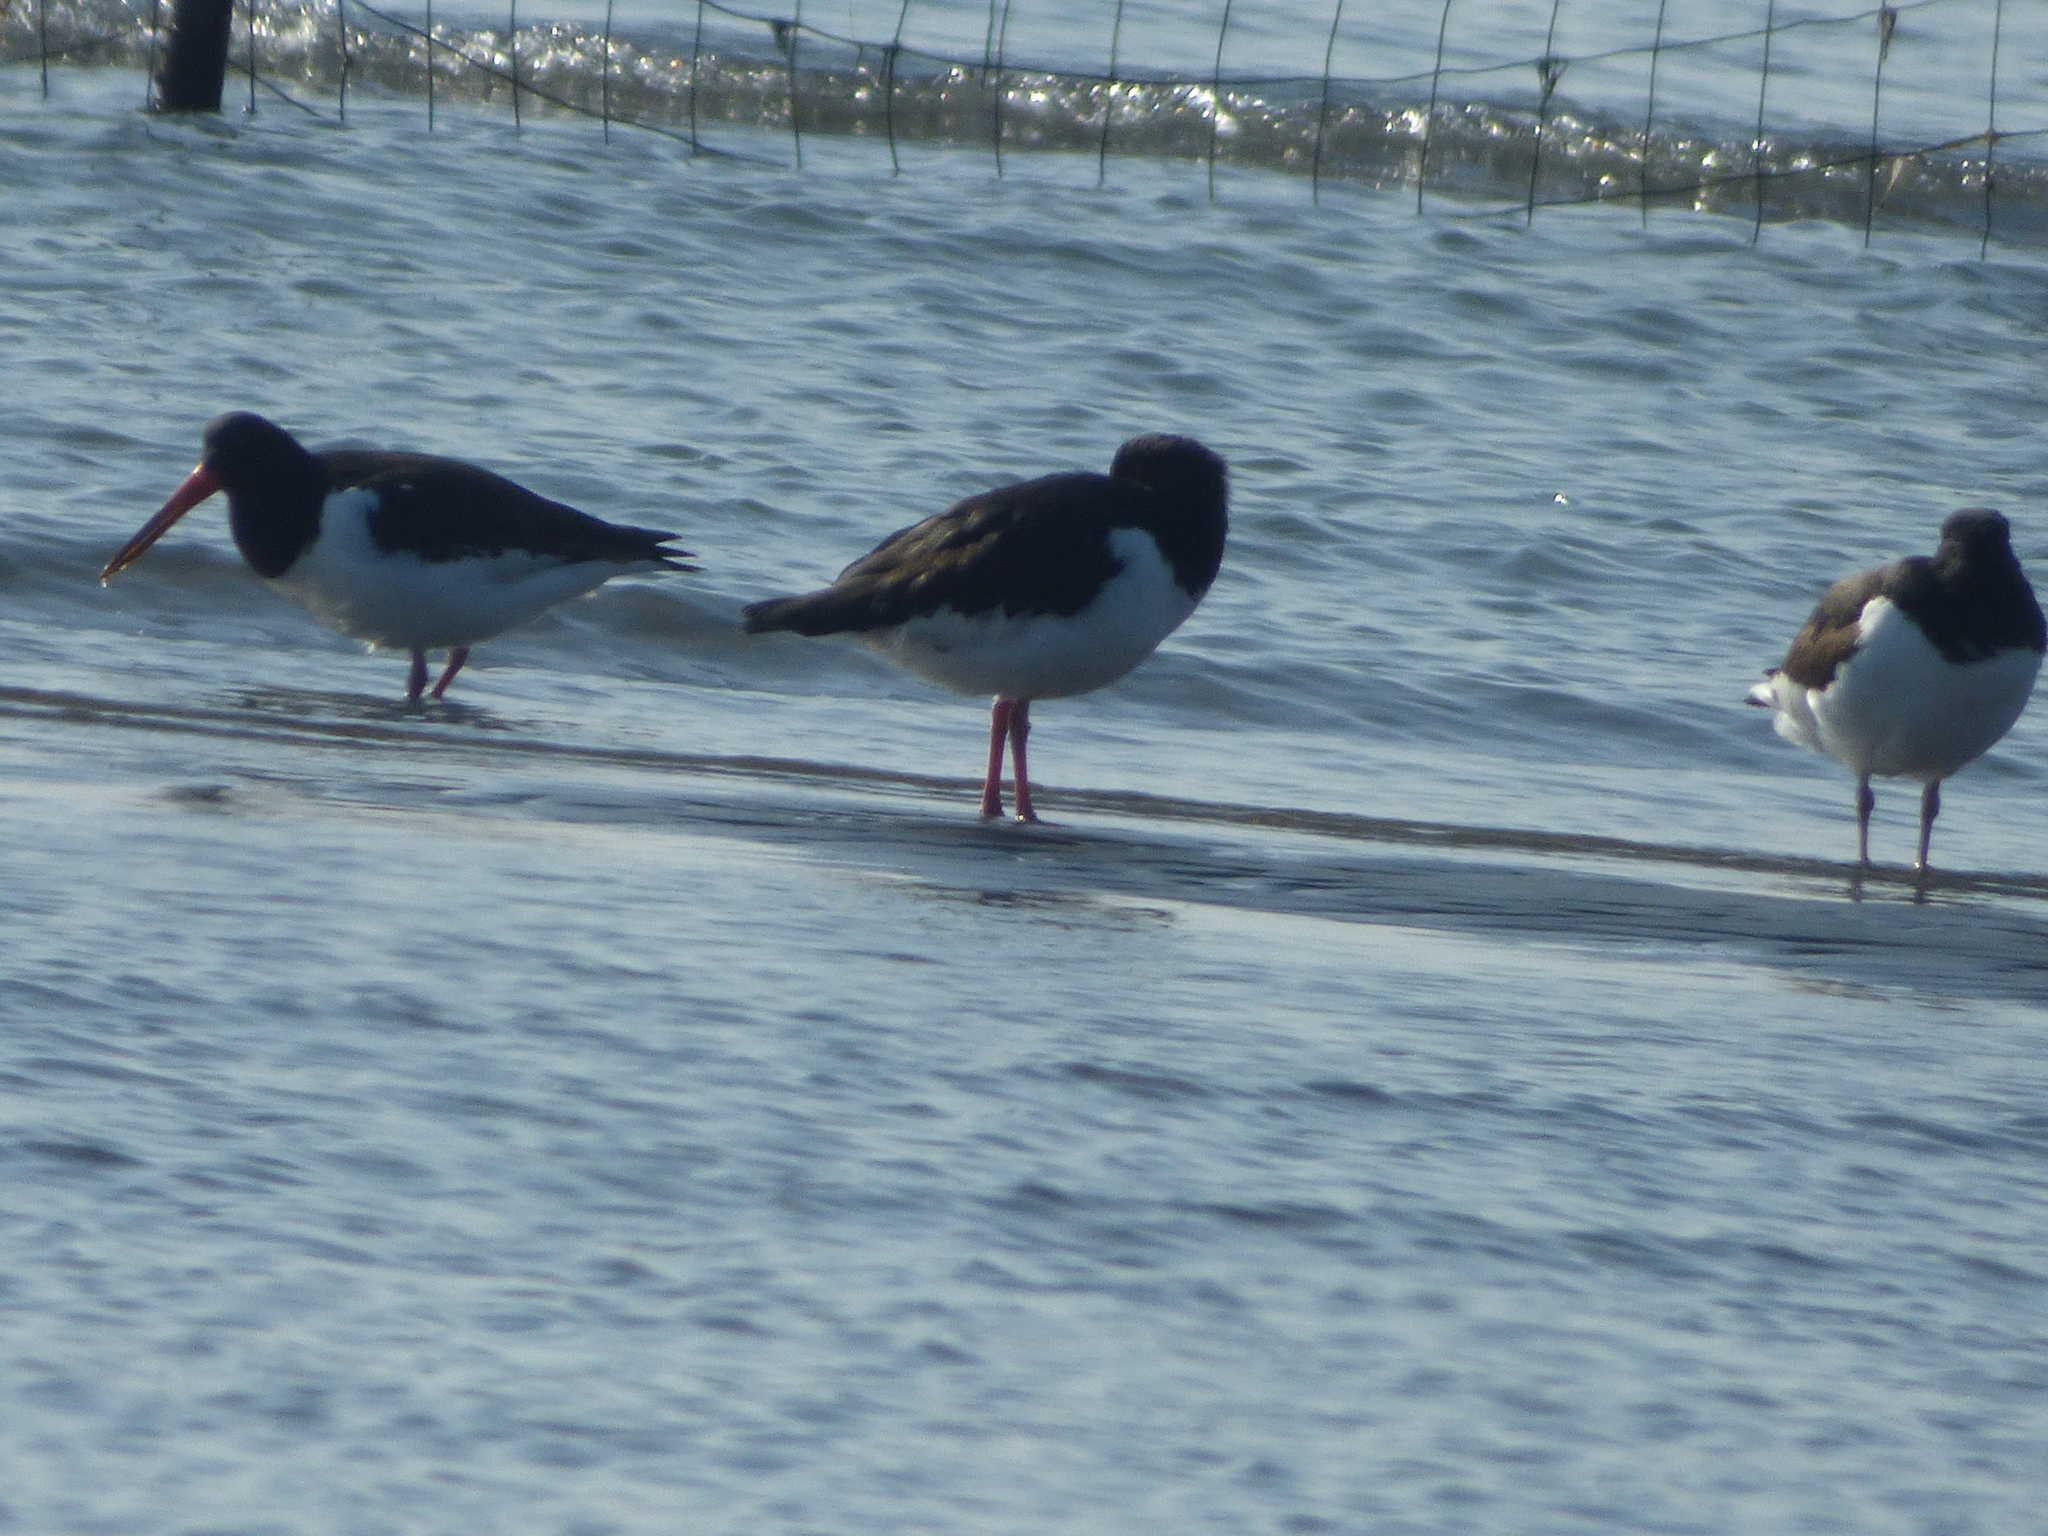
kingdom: Animalia
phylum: Chordata
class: Aves
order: Charadriiformes
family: Haematopodidae
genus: Haematopus
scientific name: Haematopus ostralegus
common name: Eurasian oystercatcher
